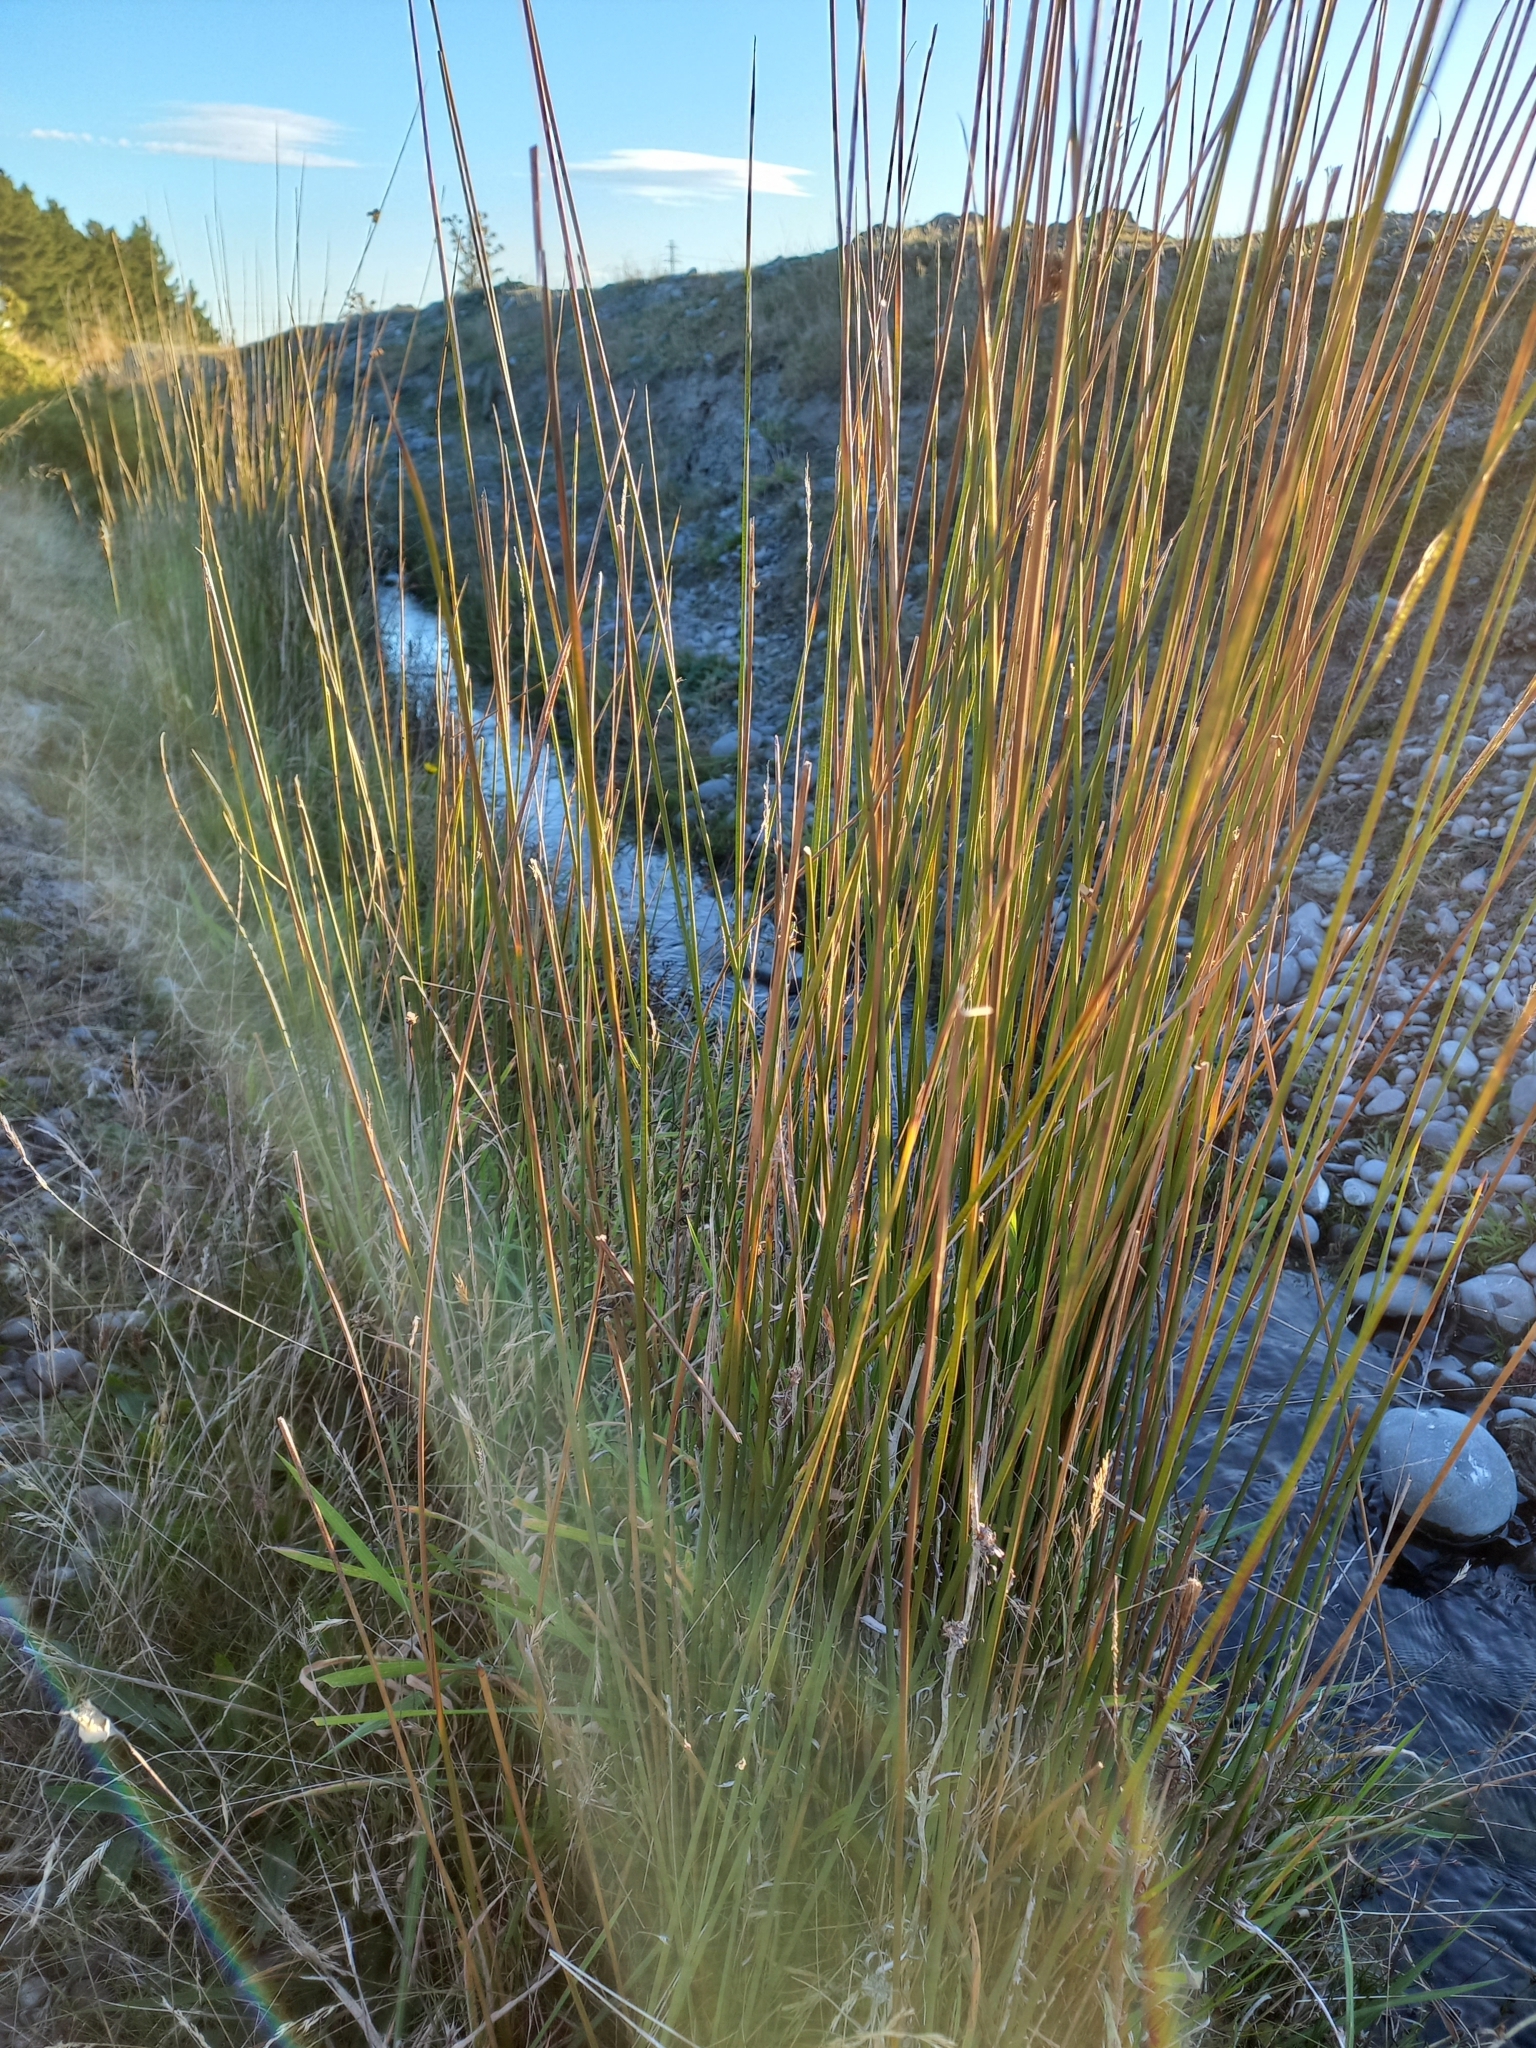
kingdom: Plantae
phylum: Tracheophyta
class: Liliopsida
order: Poales
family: Juncaceae
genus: Juncus
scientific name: Juncus edgariae
